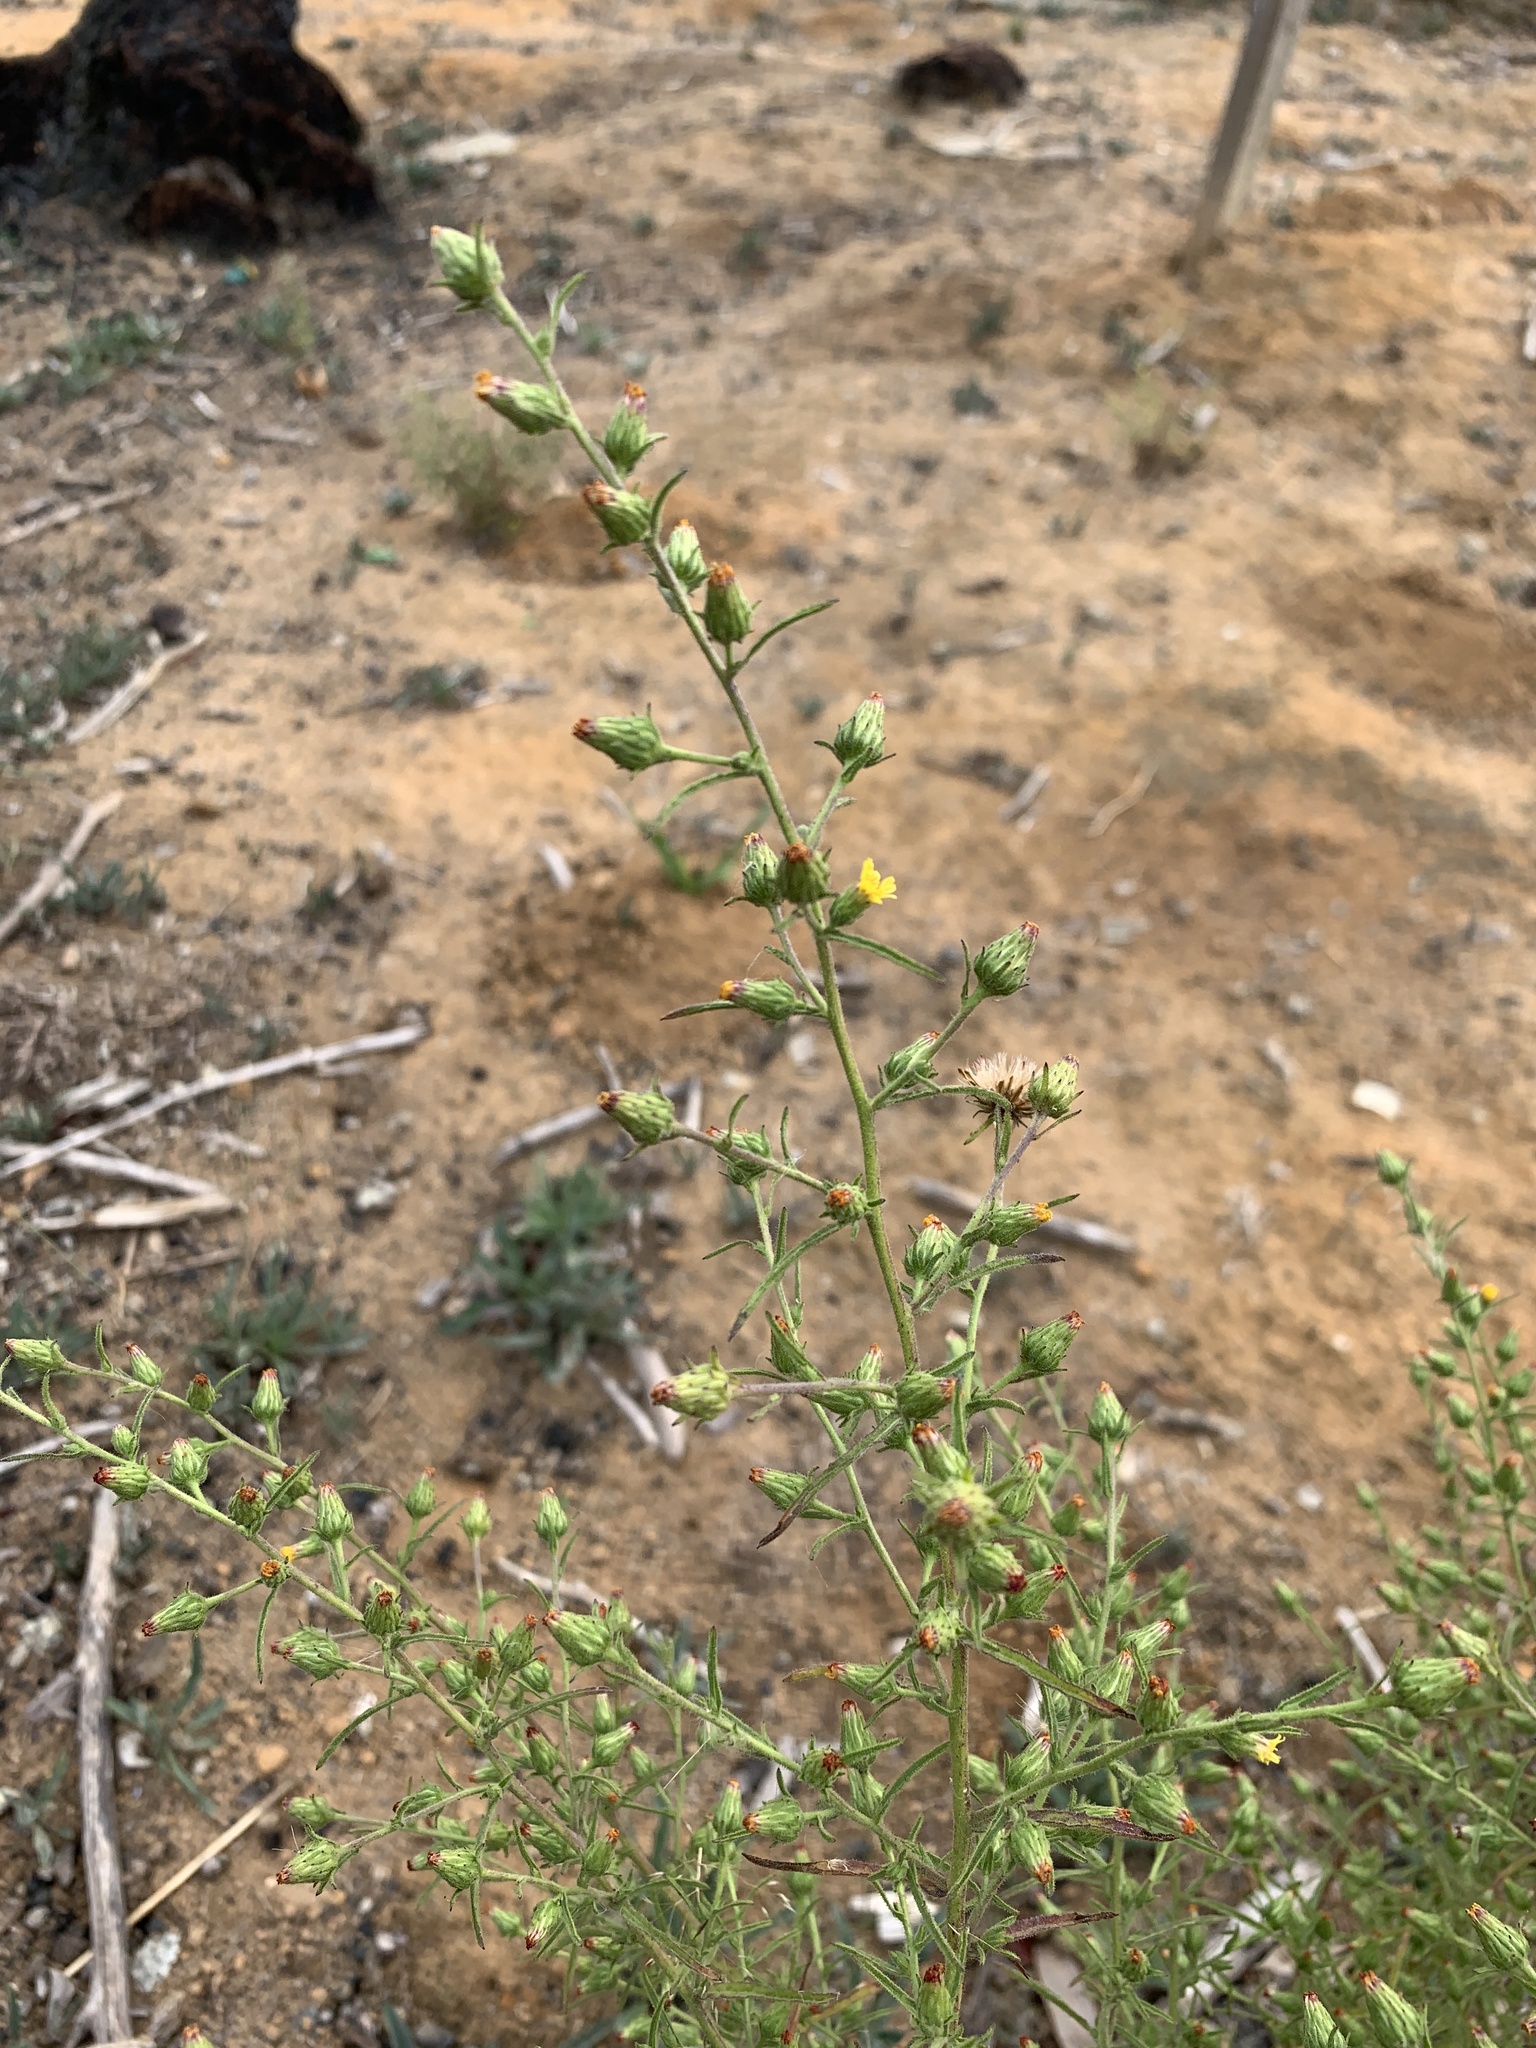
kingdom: Plantae
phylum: Tracheophyta
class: Magnoliopsida
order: Asterales
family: Asteraceae
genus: Dittrichia
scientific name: Dittrichia graveolens
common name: Stinking fleabane
